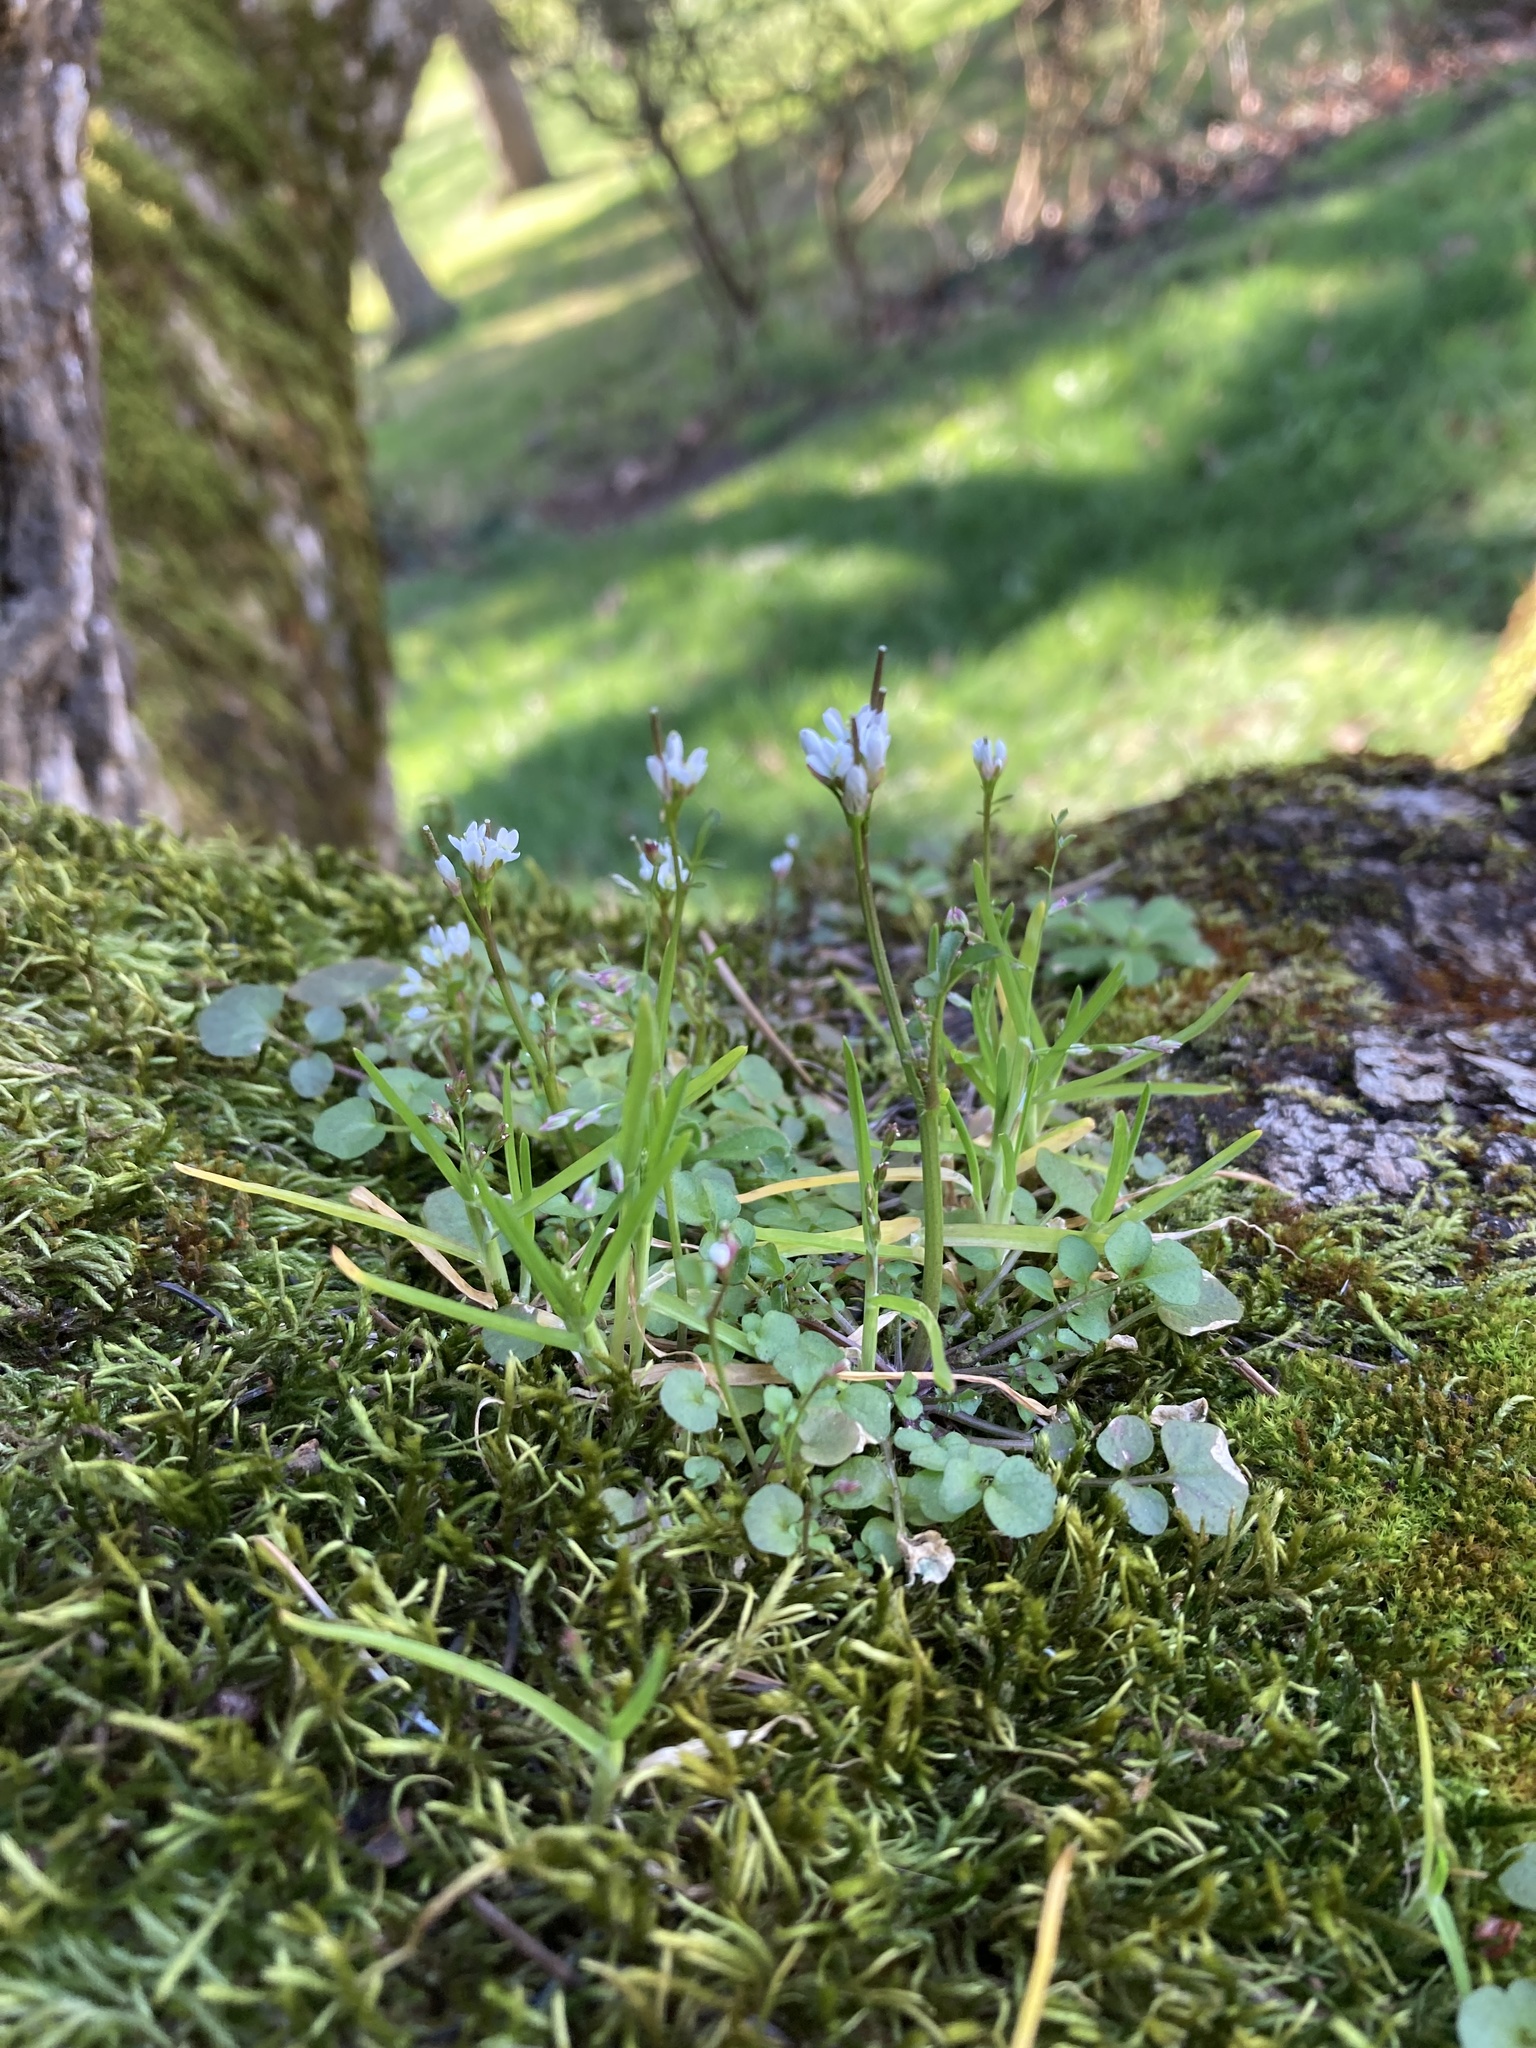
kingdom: Plantae
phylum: Tracheophyta
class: Magnoliopsida
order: Brassicales
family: Brassicaceae
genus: Cardamine
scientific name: Cardamine hirsuta
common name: Hairy bittercress
